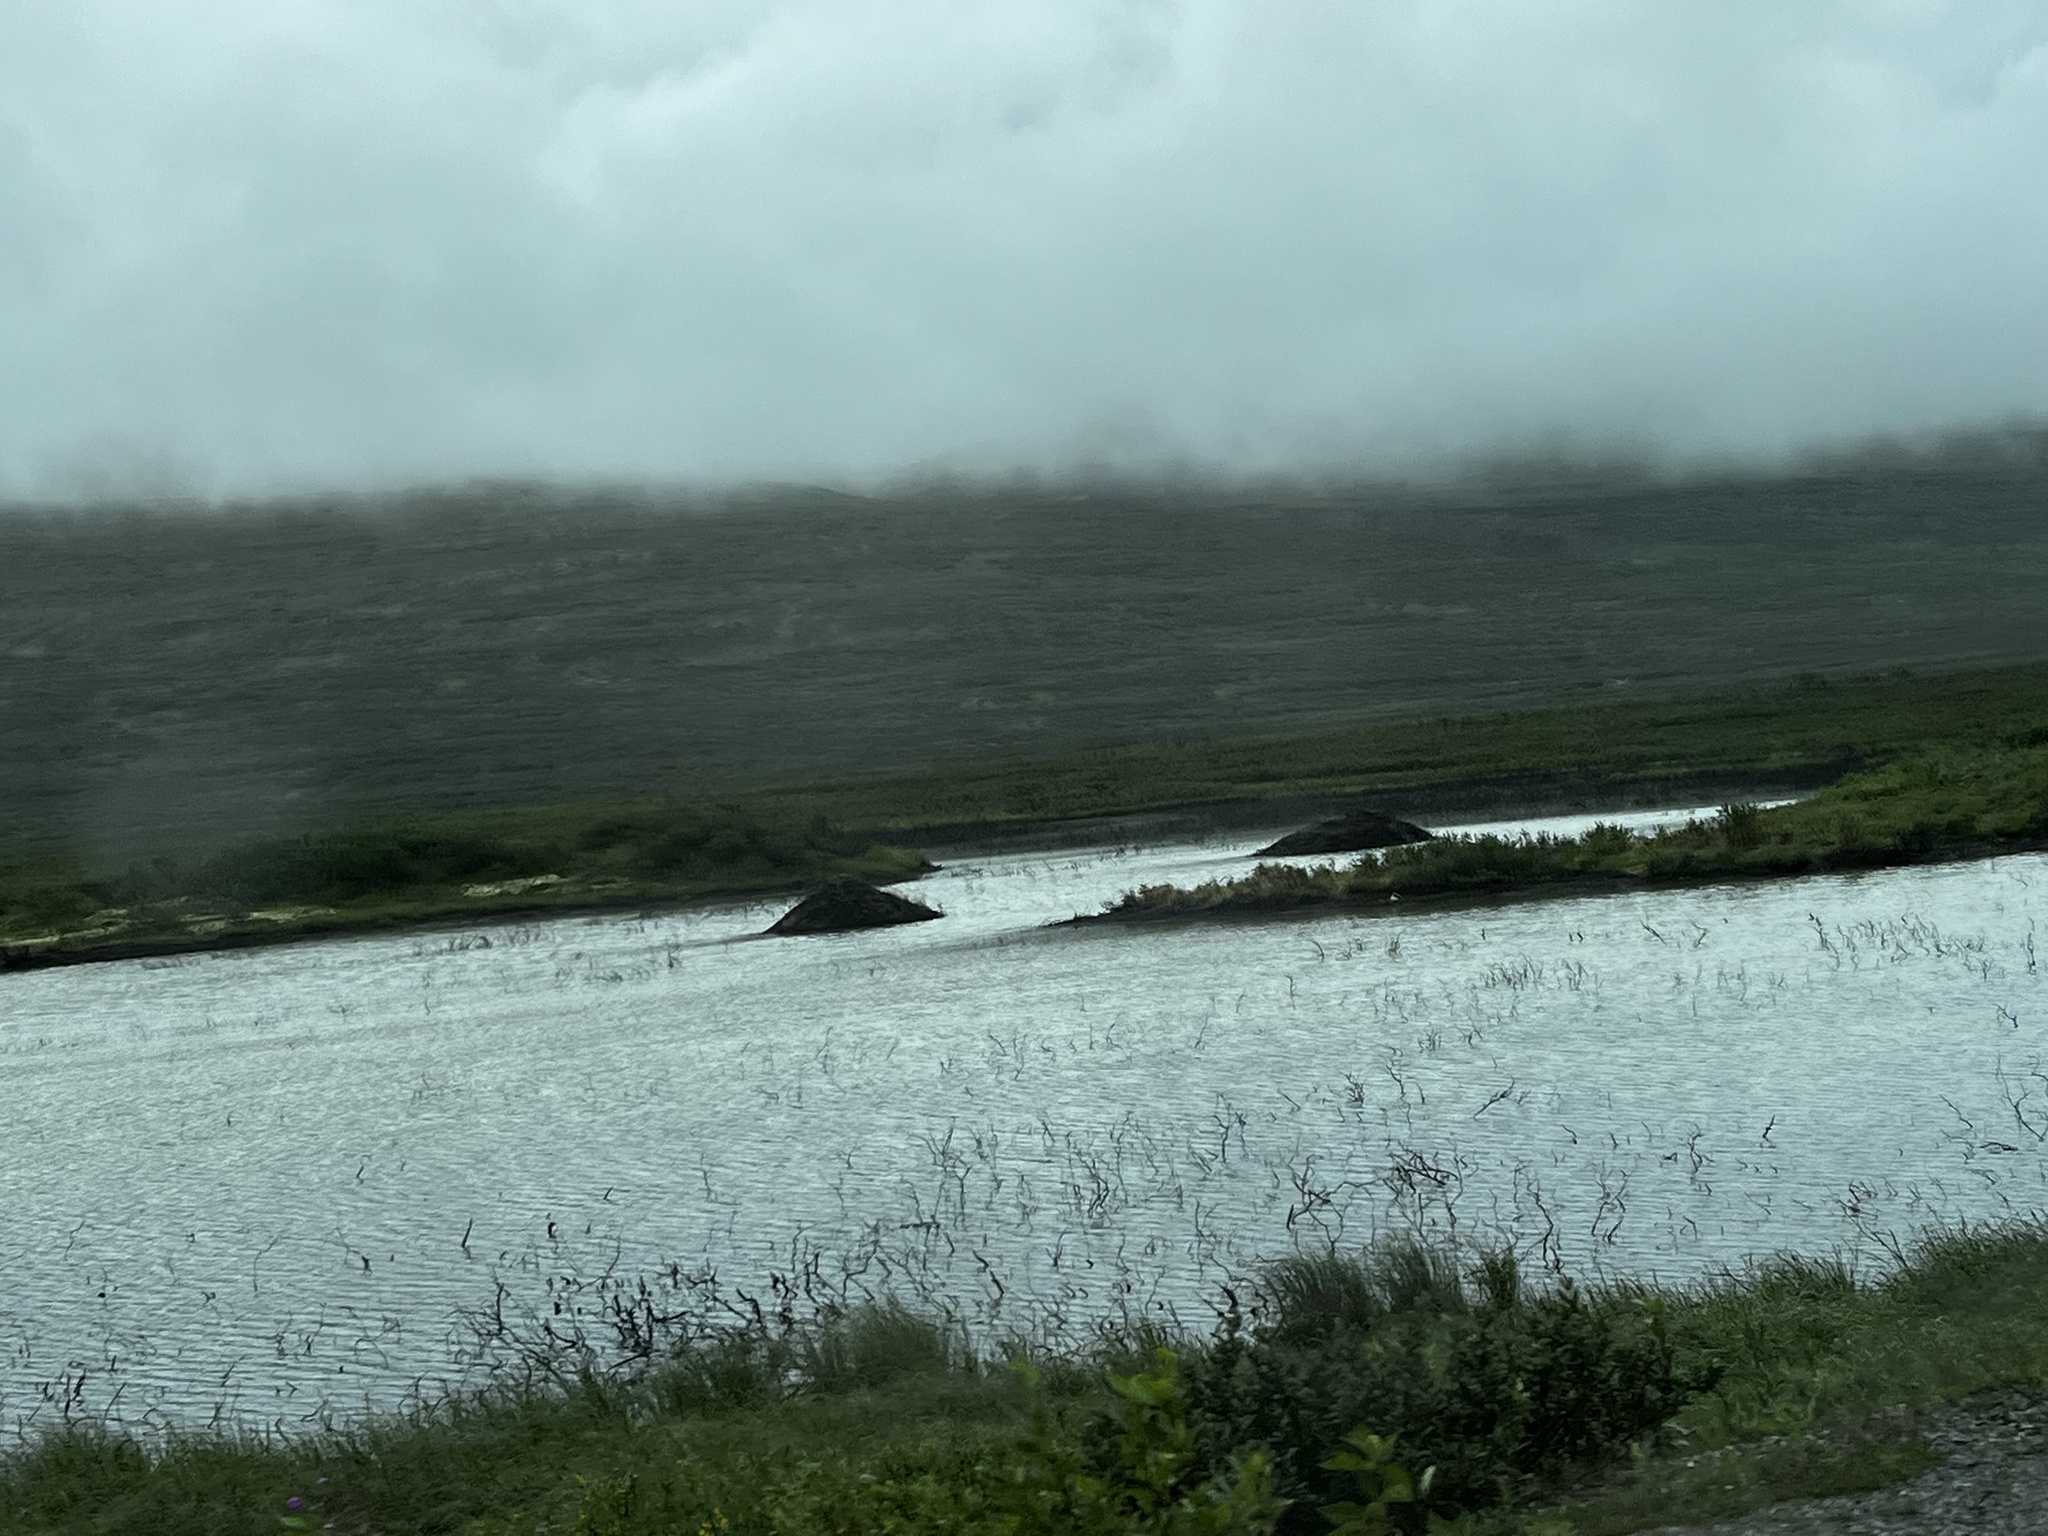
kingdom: Animalia
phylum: Chordata
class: Mammalia
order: Rodentia
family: Castoridae
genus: Castor
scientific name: Castor canadensis
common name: American beaver
